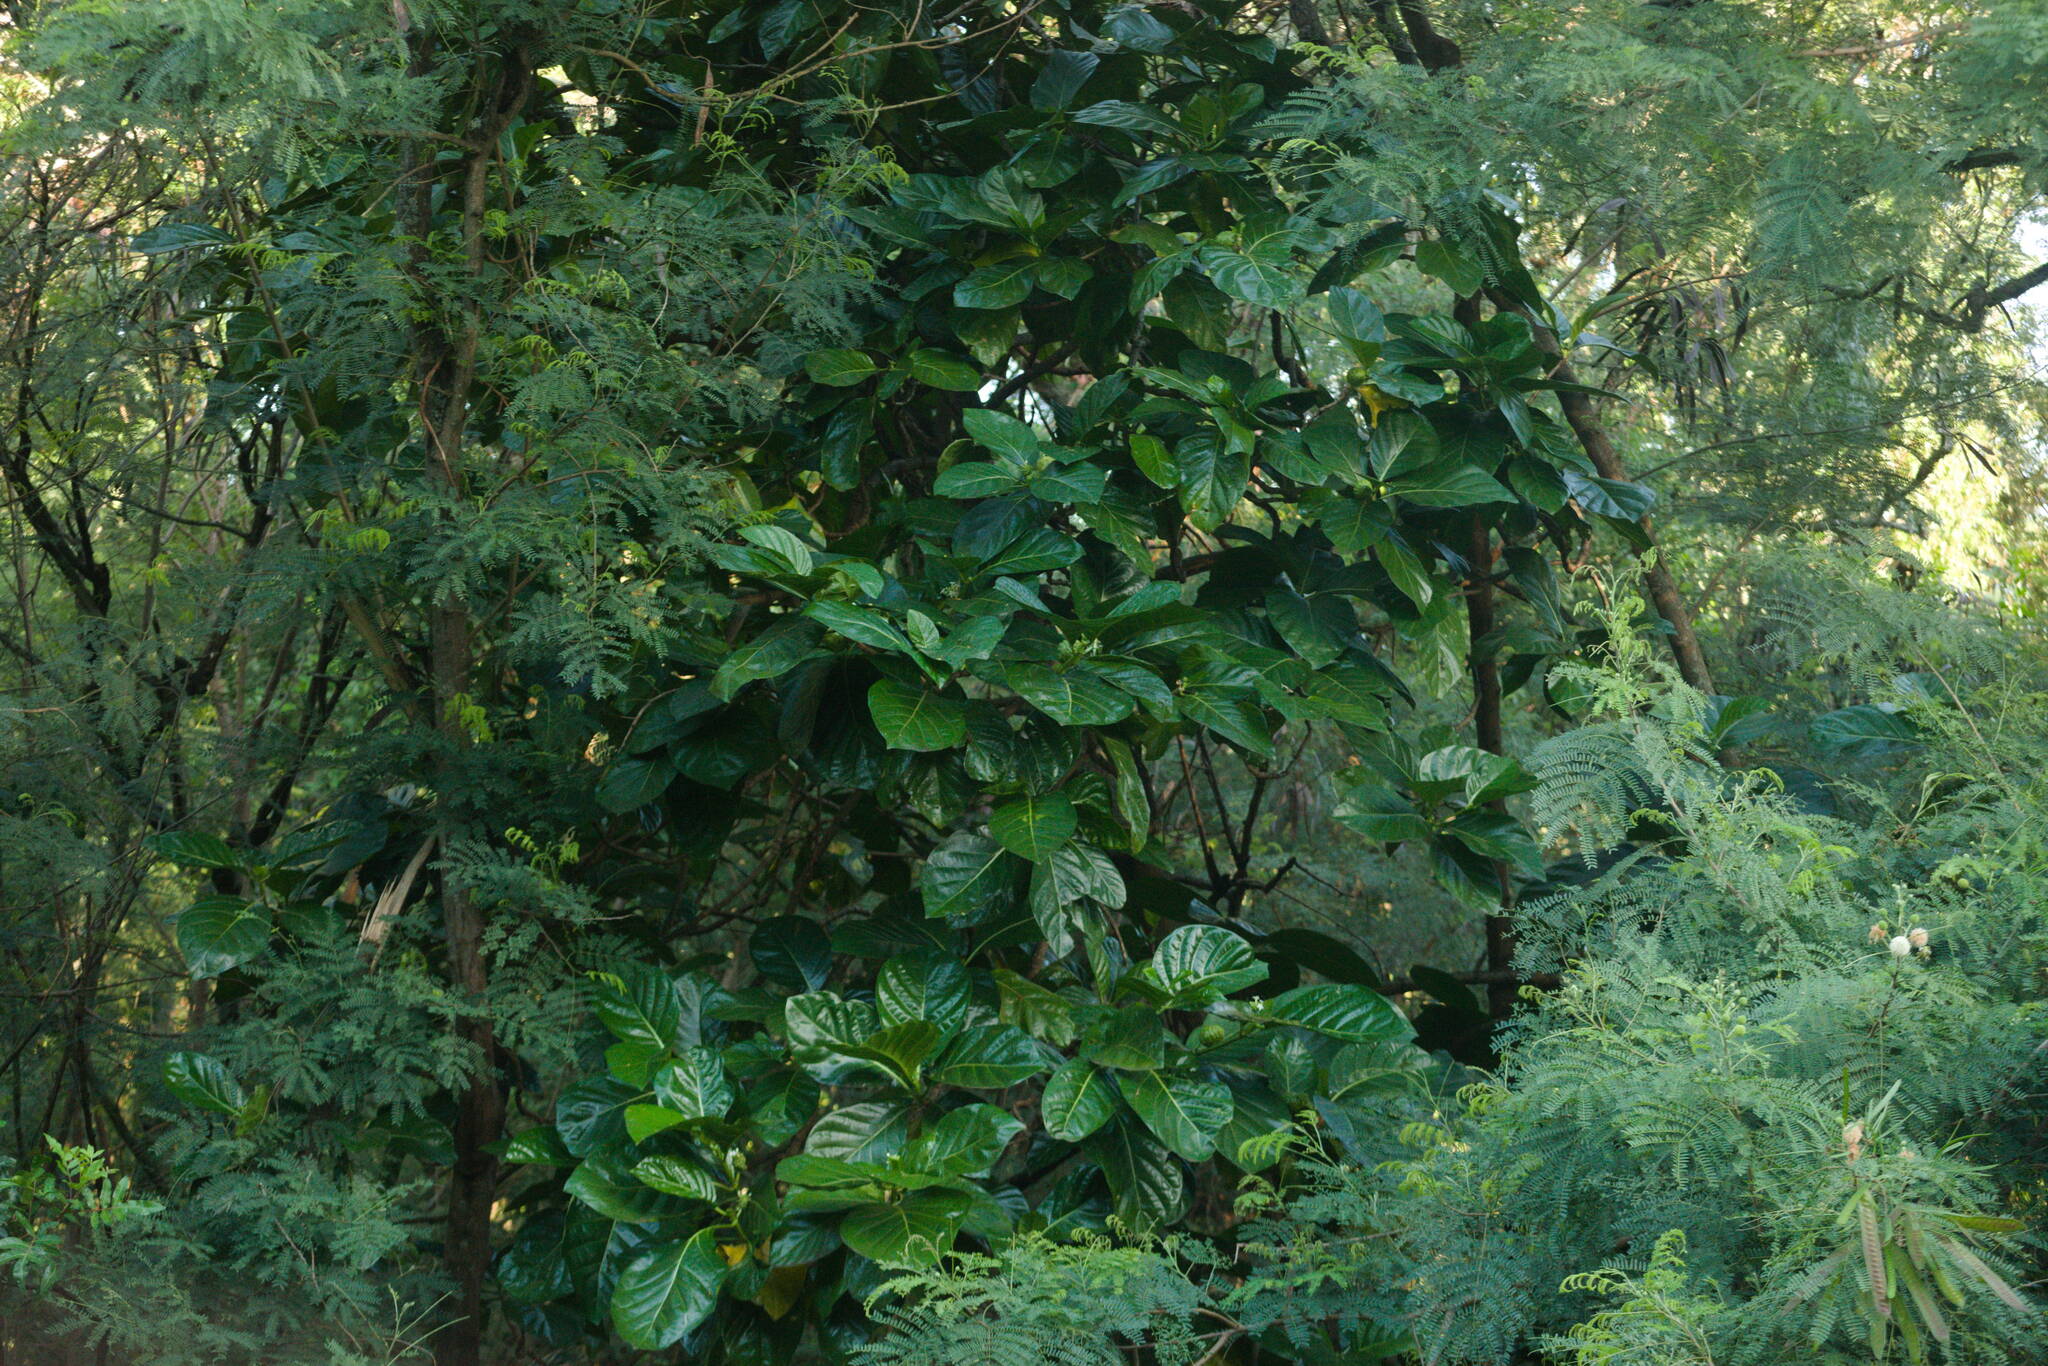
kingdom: Plantae
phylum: Tracheophyta
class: Magnoliopsida
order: Gentianales
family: Rubiaceae
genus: Morinda
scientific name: Morinda citrifolia
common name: Indian-mulberry
